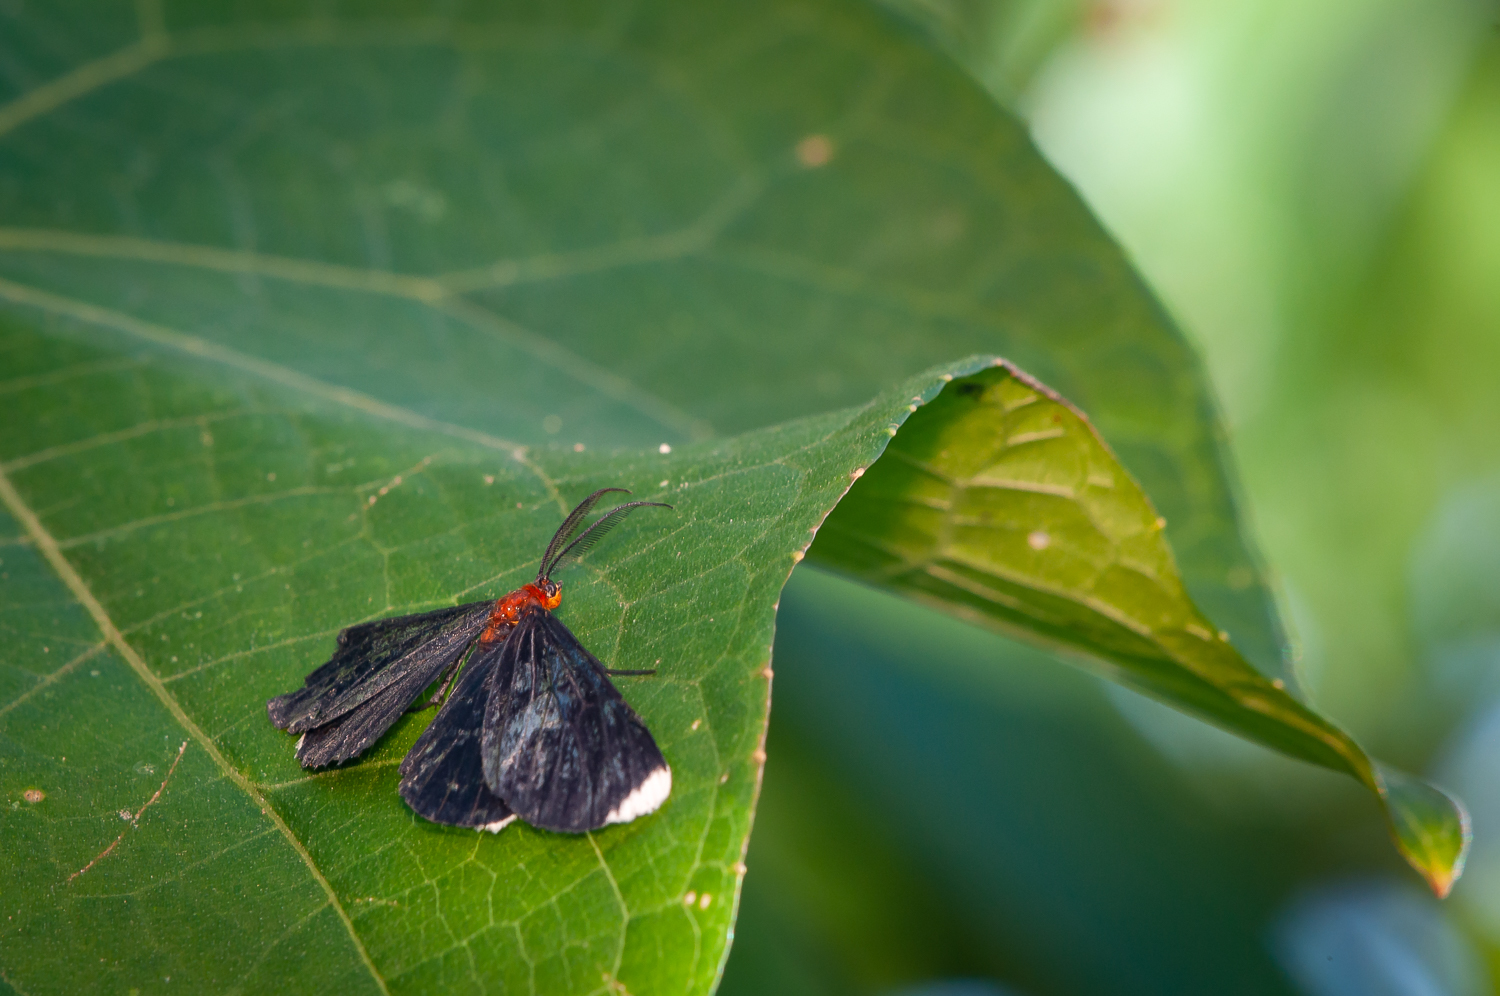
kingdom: Animalia
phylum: Arthropoda
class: Insecta
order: Lepidoptera
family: Geometridae
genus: Melanchroia
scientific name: Melanchroia chephise
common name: White-tipped black
